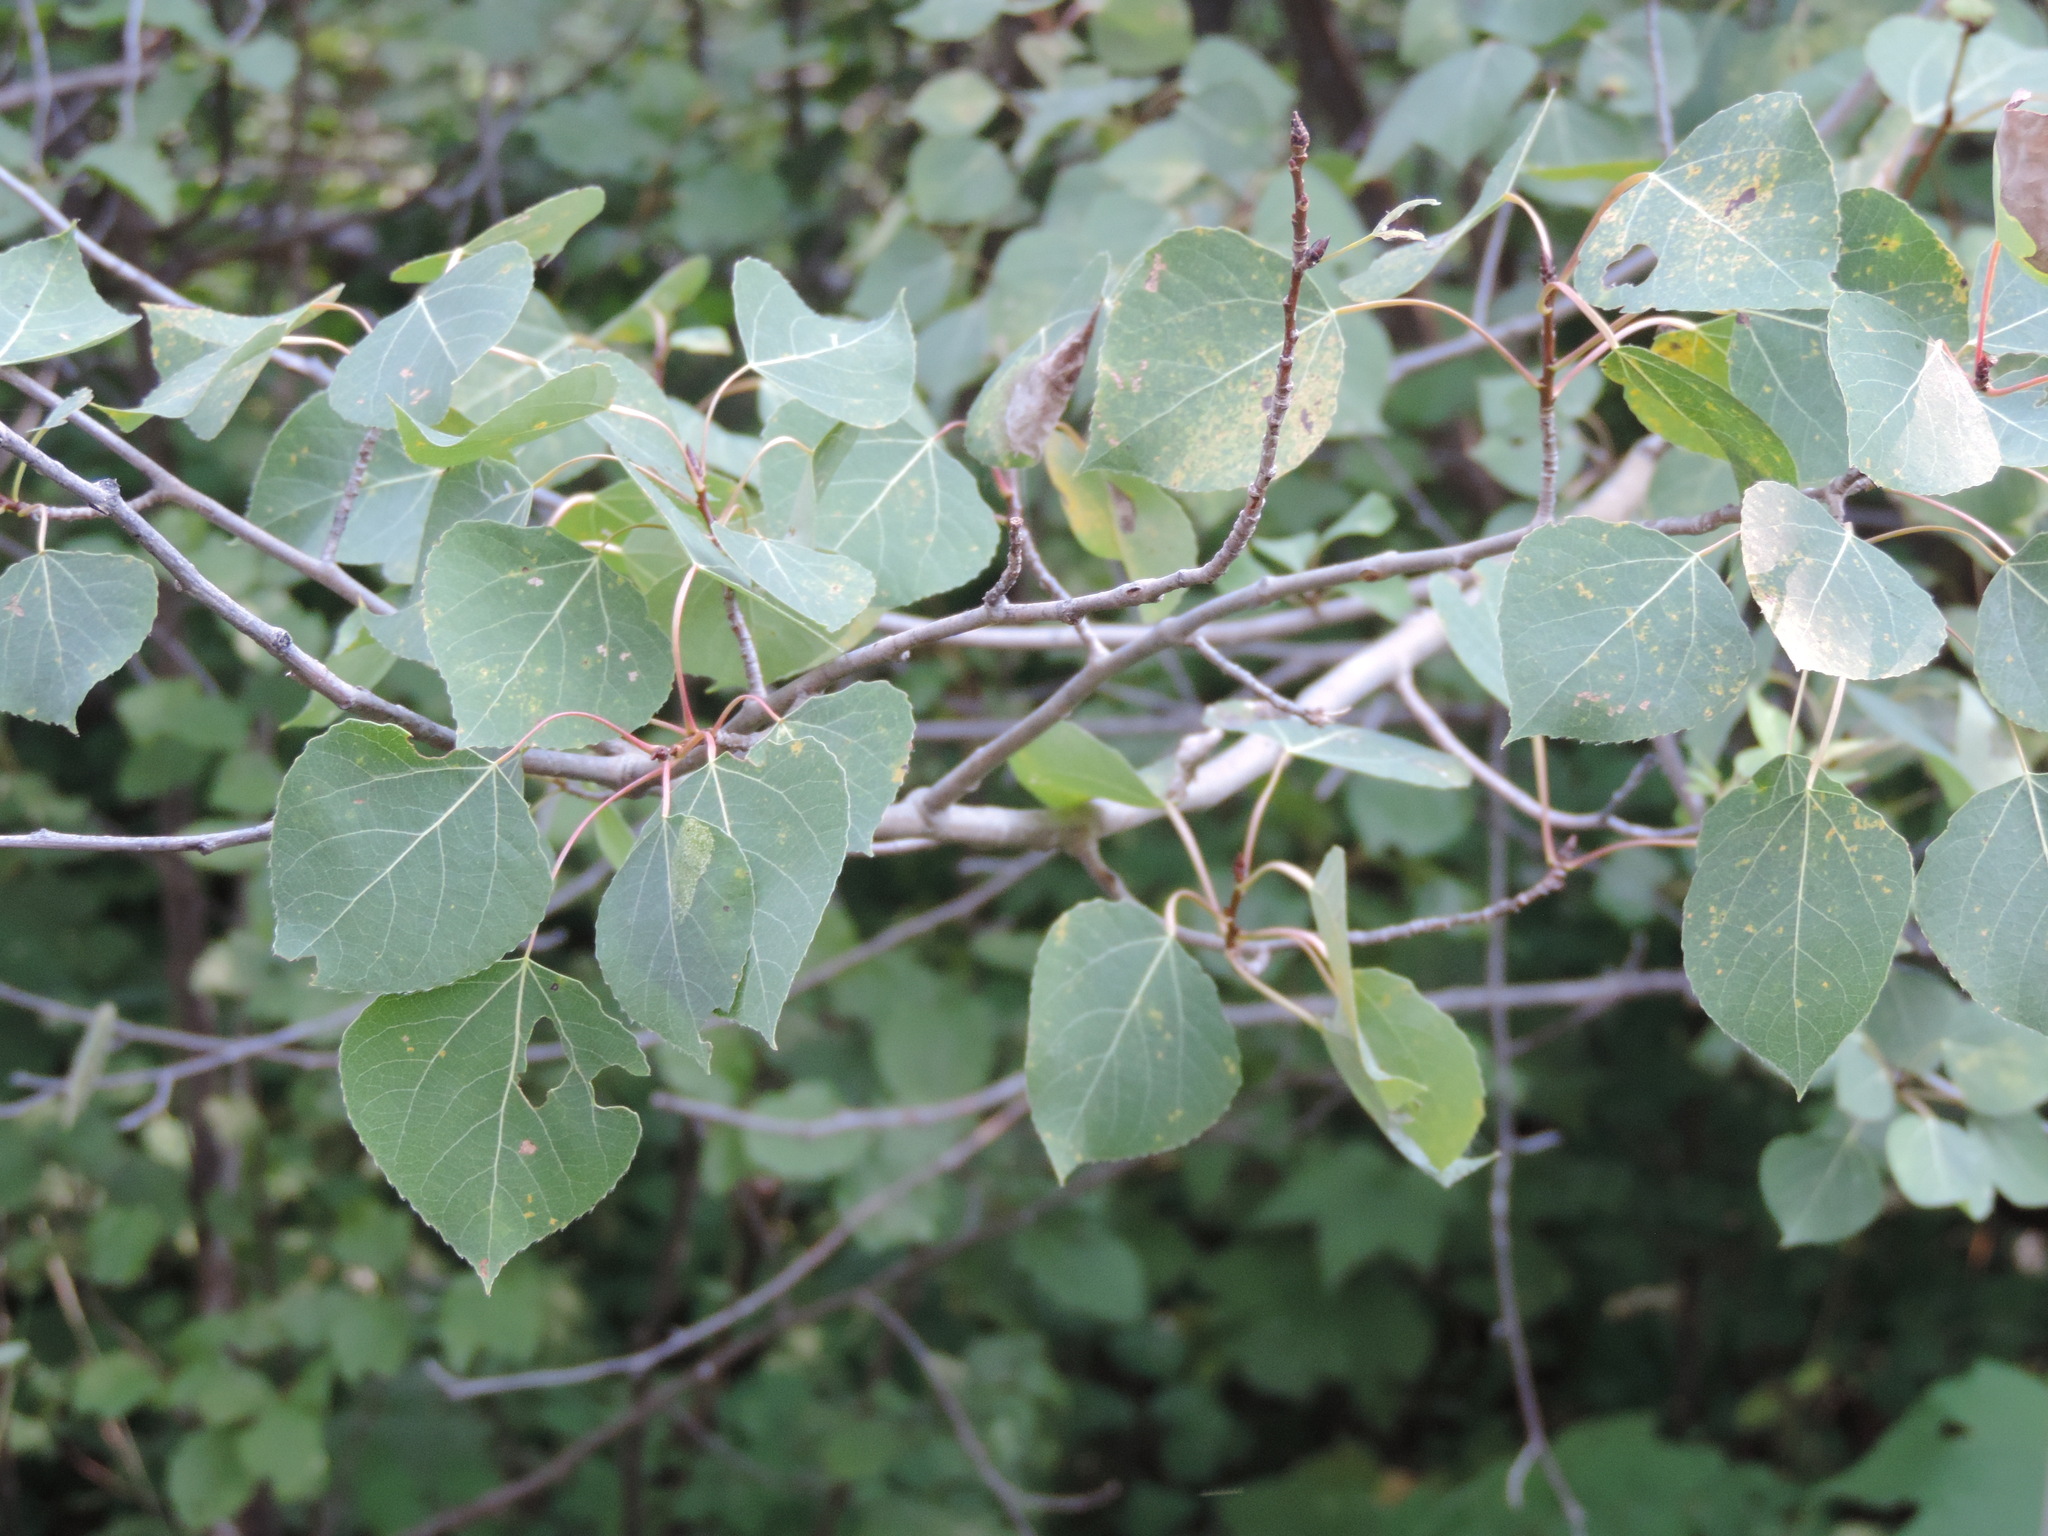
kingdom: Plantae
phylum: Tracheophyta
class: Magnoliopsida
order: Malpighiales
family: Salicaceae
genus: Populus
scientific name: Populus tremuloides
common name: Quaking aspen
